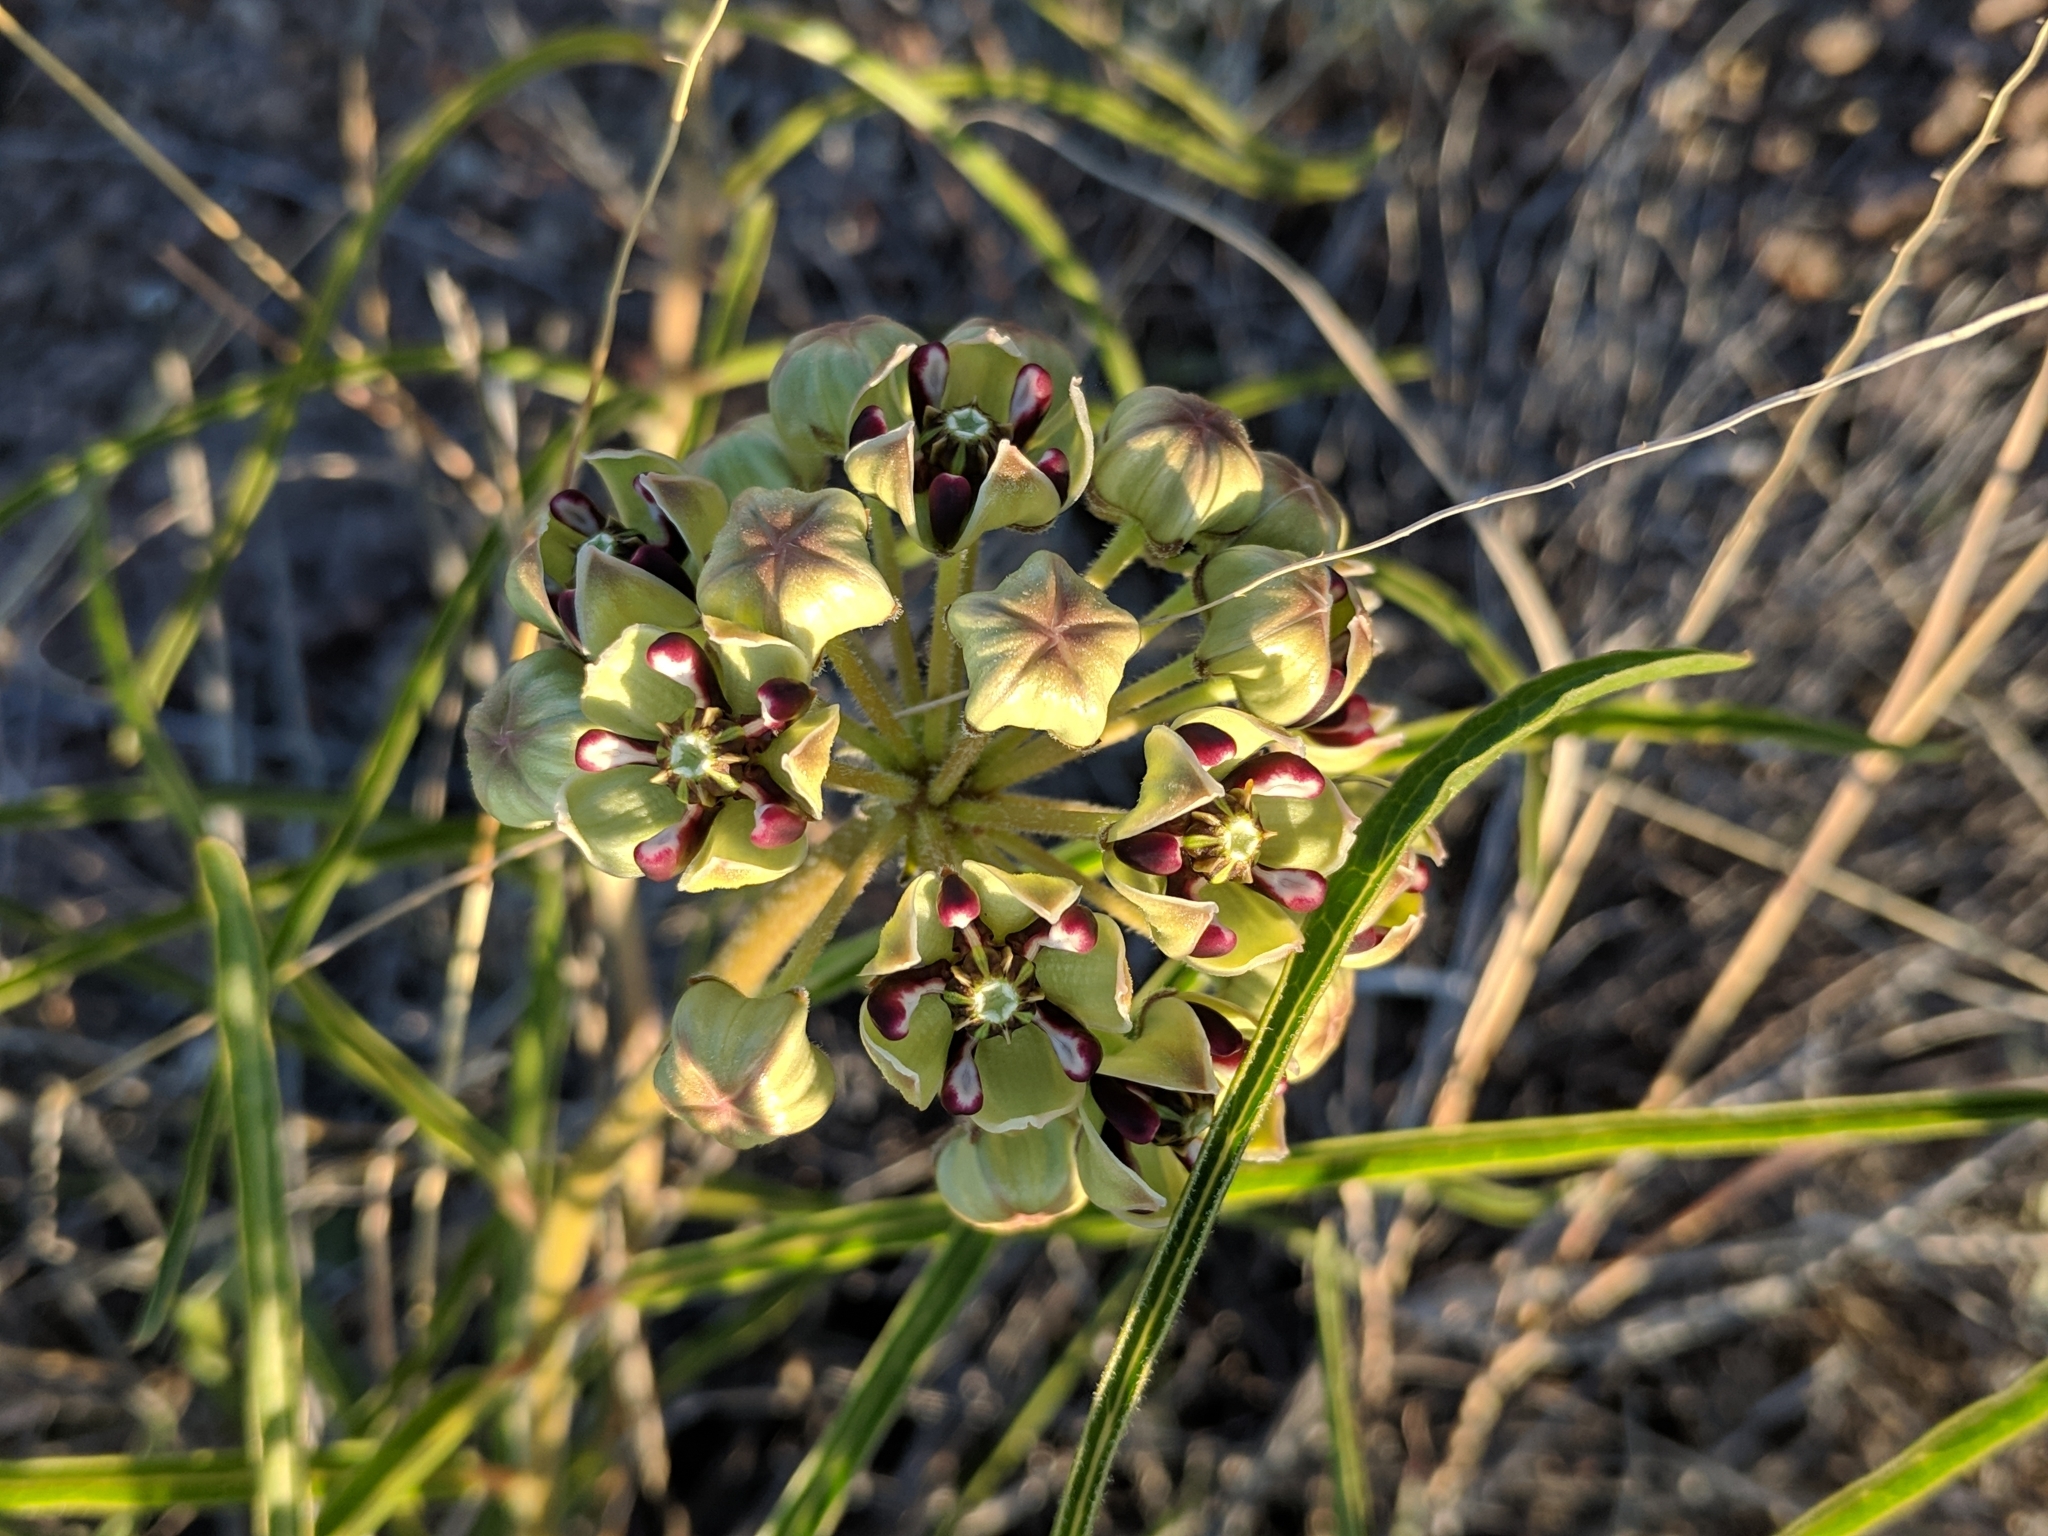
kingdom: Plantae
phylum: Tracheophyta
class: Magnoliopsida
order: Gentianales
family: Apocynaceae
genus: Asclepias
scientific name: Asclepias asperula
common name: Antelope horns
